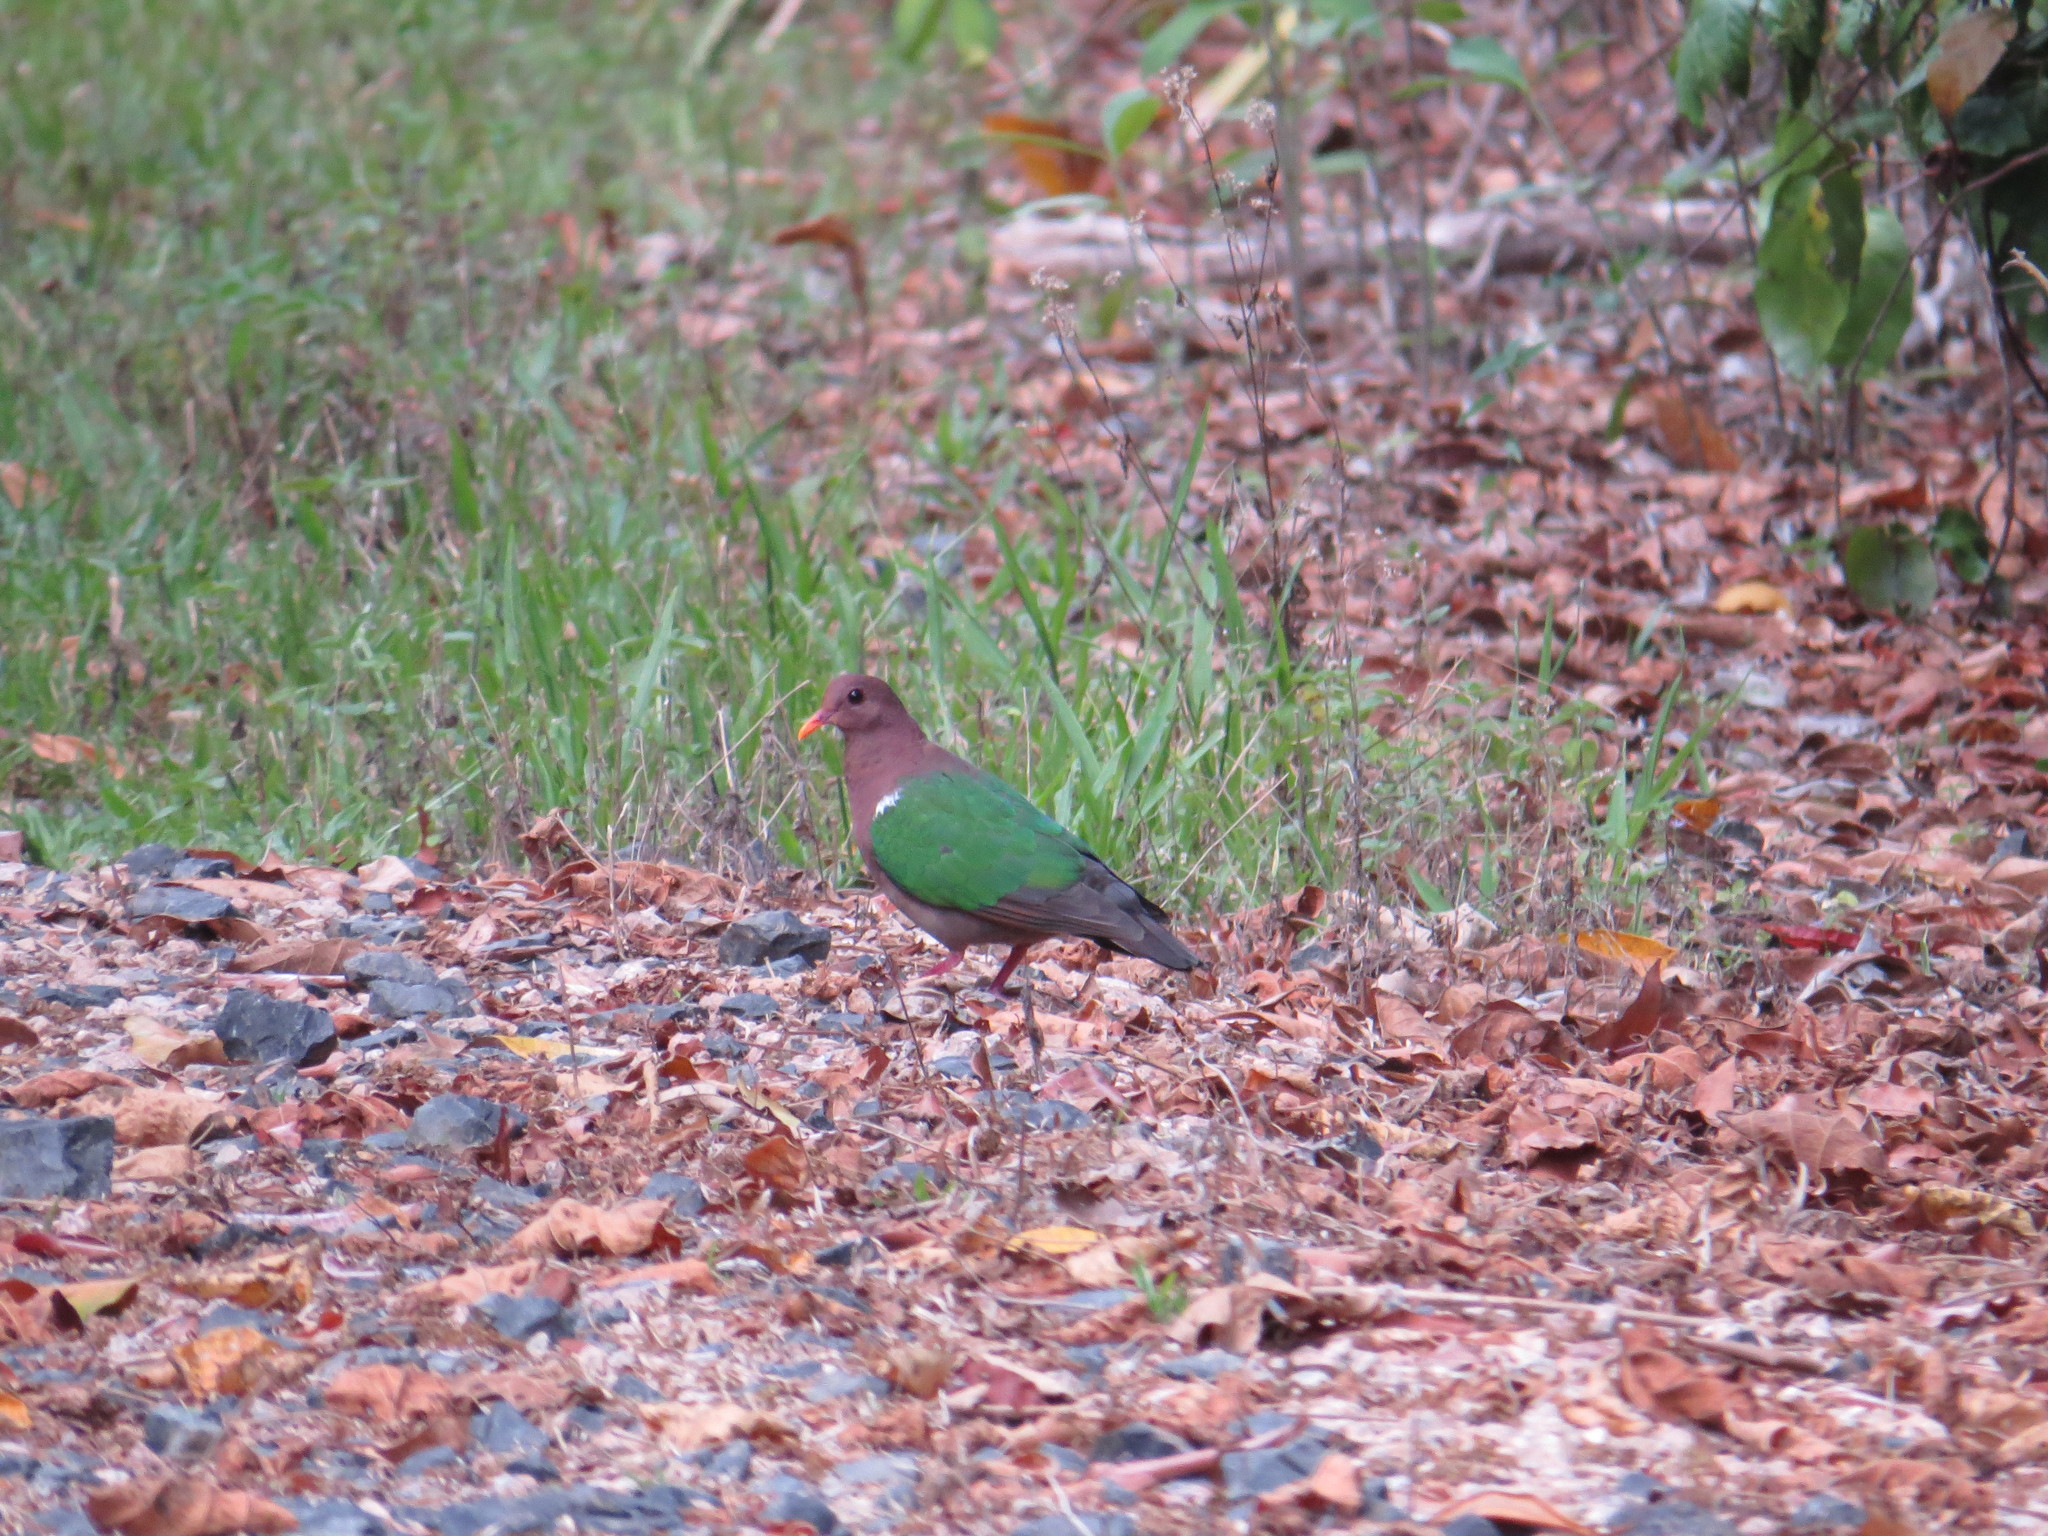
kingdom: Animalia
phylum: Chordata
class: Aves
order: Columbiformes
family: Columbidae
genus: Chalcophaps
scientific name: Chalcophaps longirostris
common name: Pacific emerald dove
